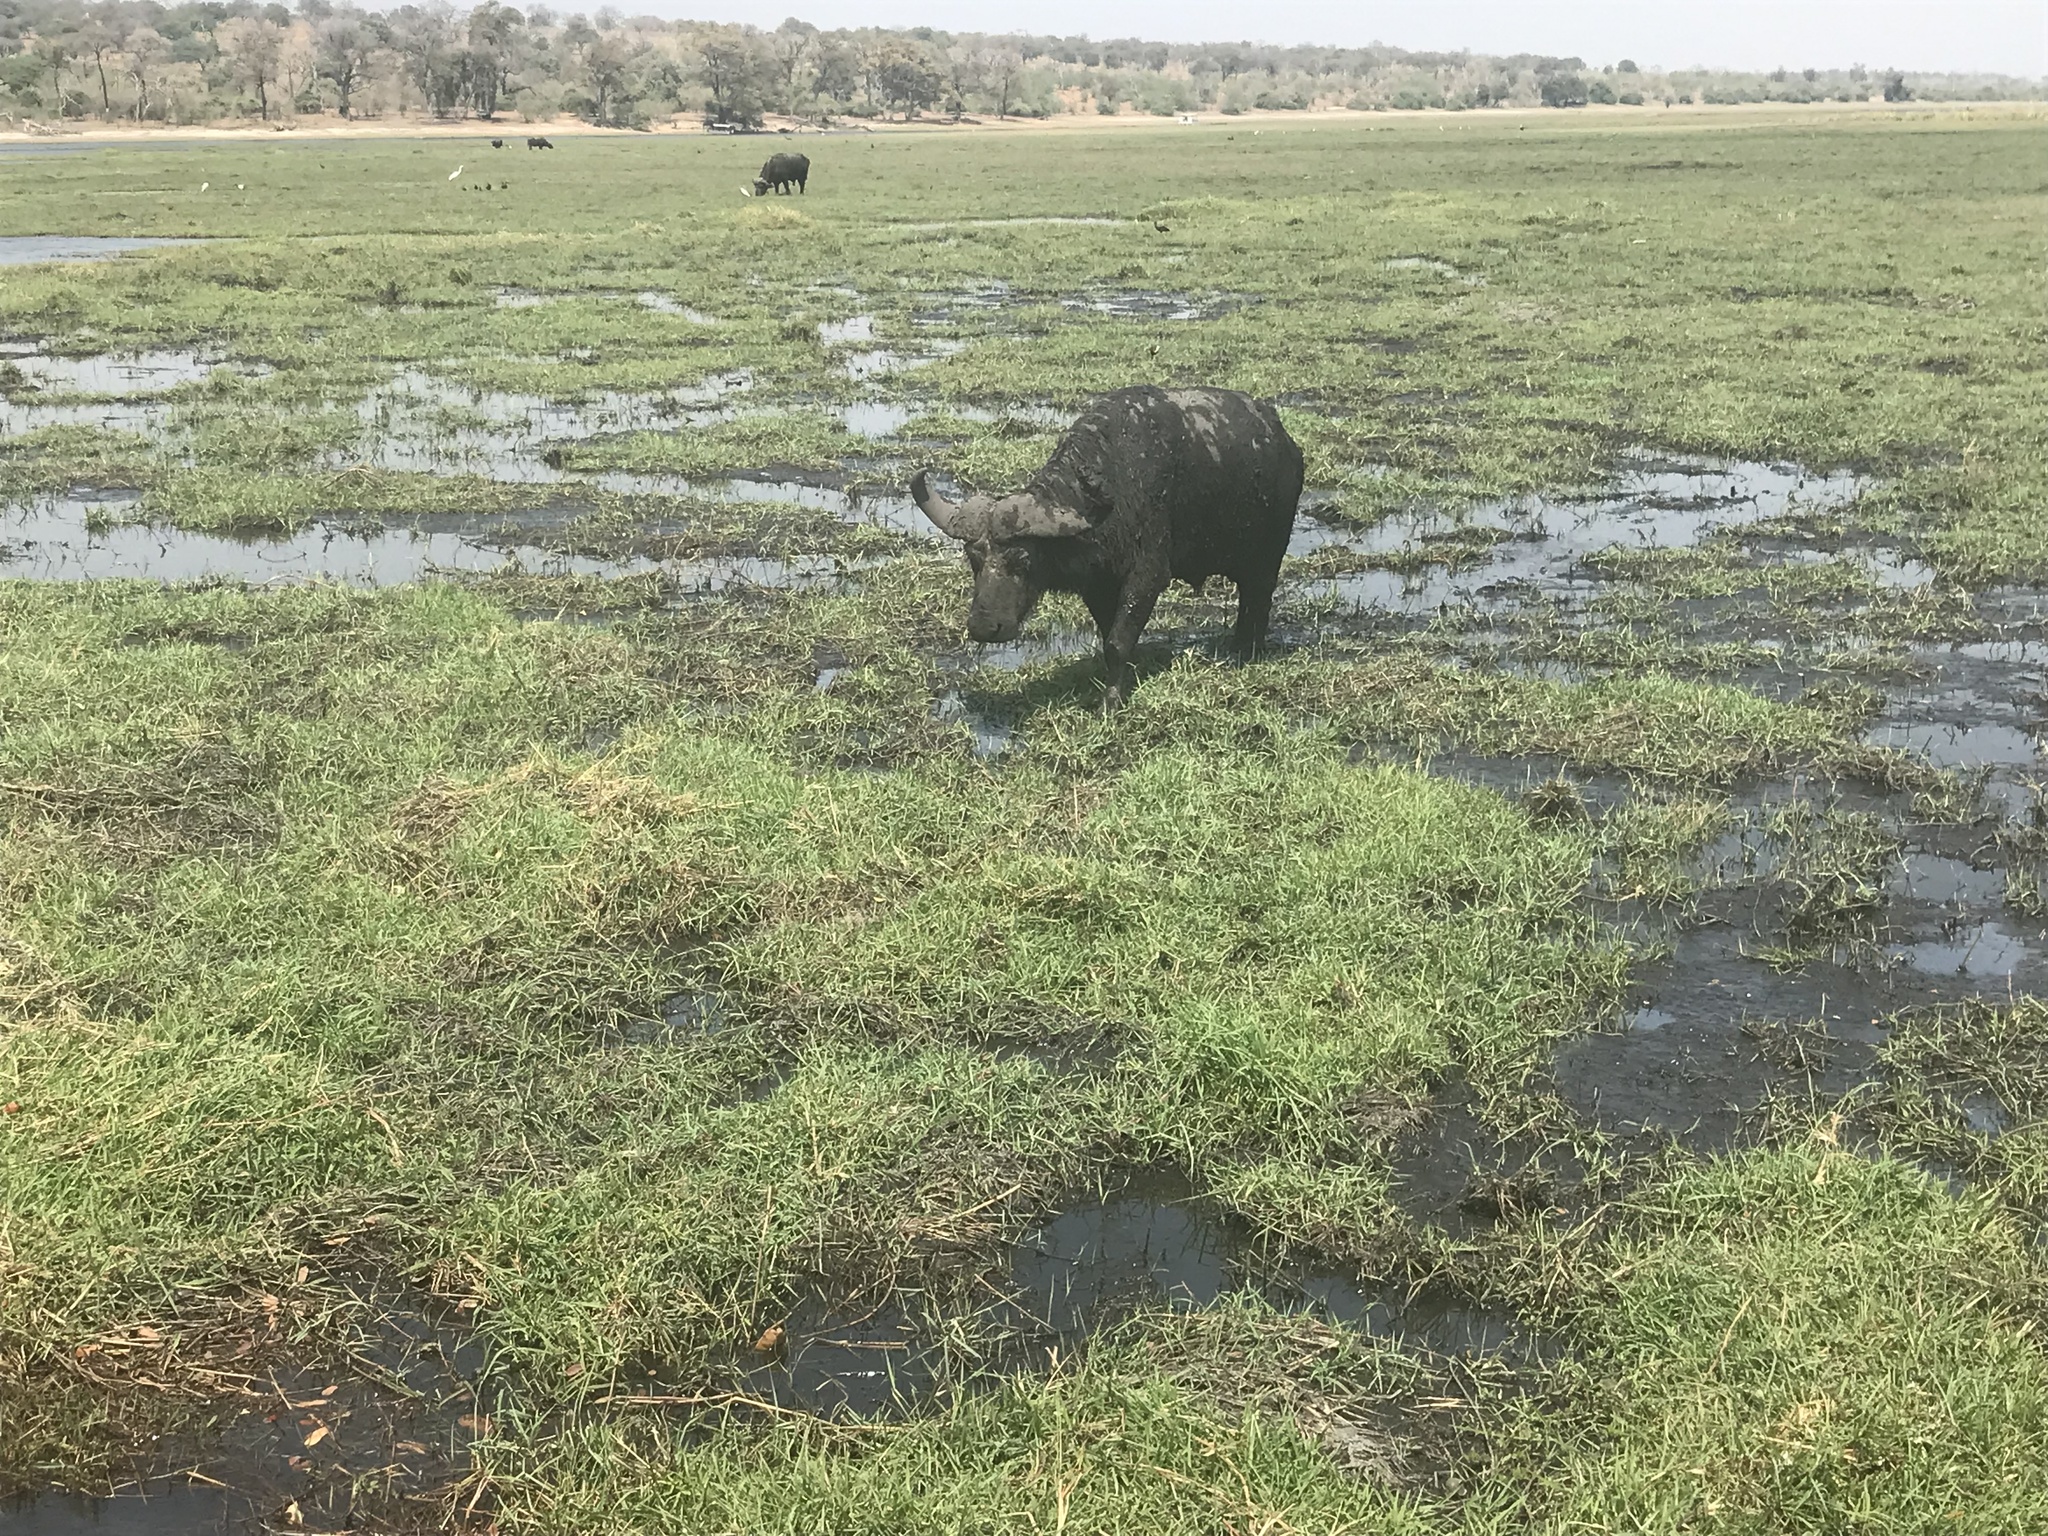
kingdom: Animalia
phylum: Chordata
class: Mammalia
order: Artiodactyla
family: Bovidae
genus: Syncerus
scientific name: Syncerus caffer
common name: African buffalo
